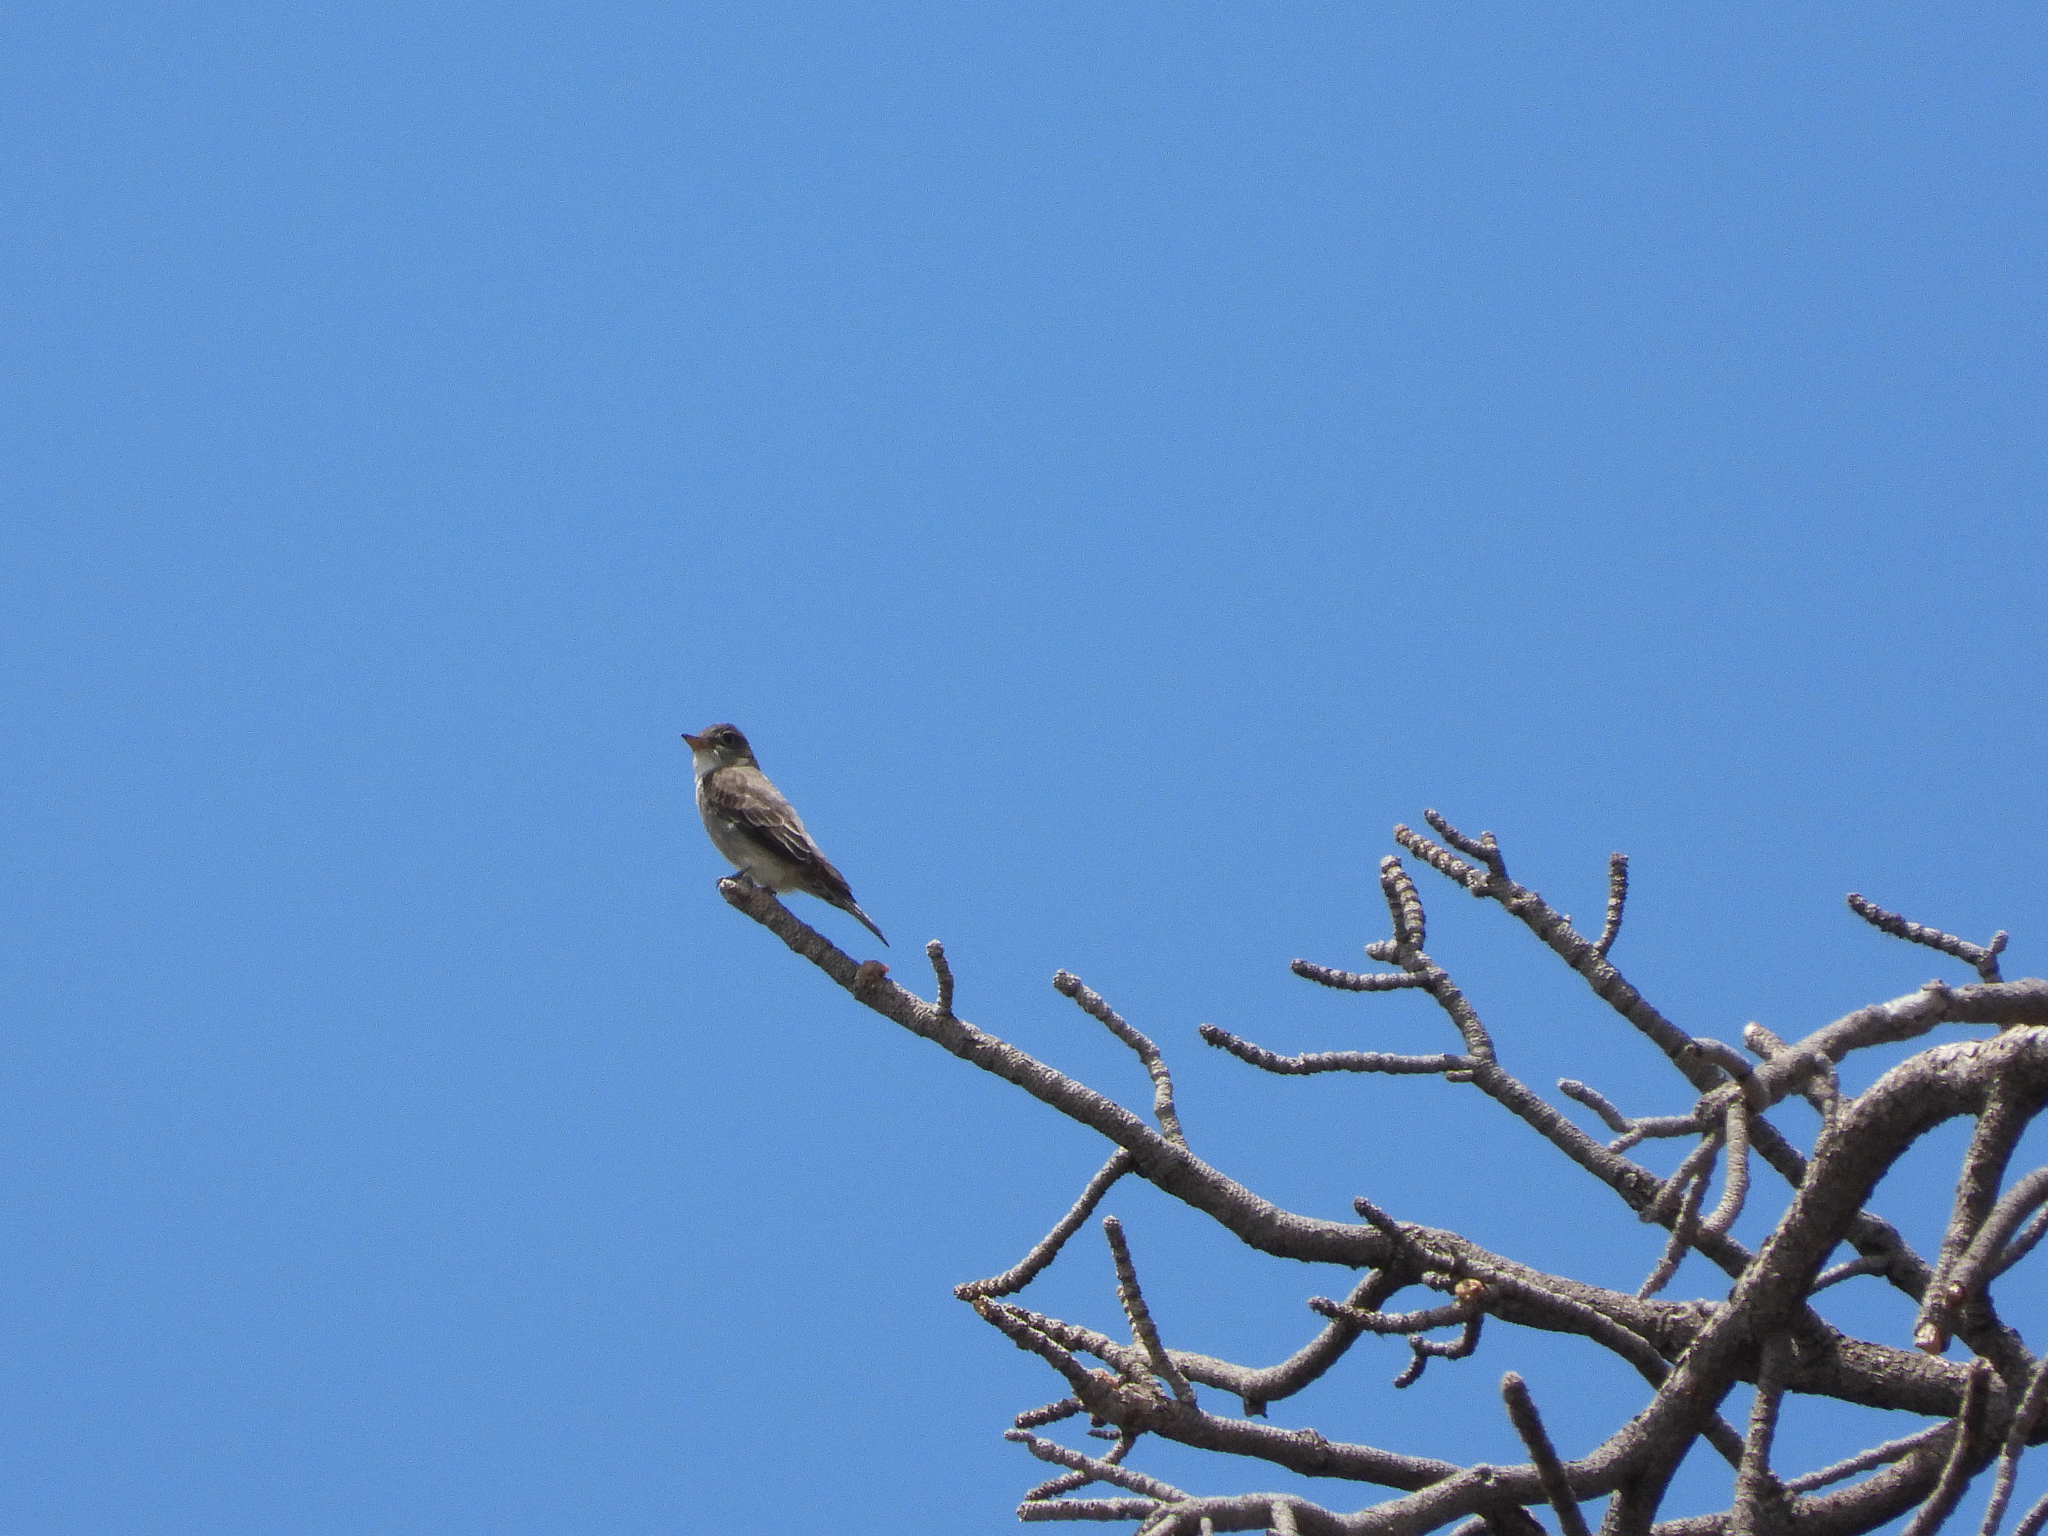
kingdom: Animalia
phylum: Chordata
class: Aves
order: Passeriformes
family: Tyrannidae
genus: Contopus
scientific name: Contopus cooperi
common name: Olive-sided flycatcher
